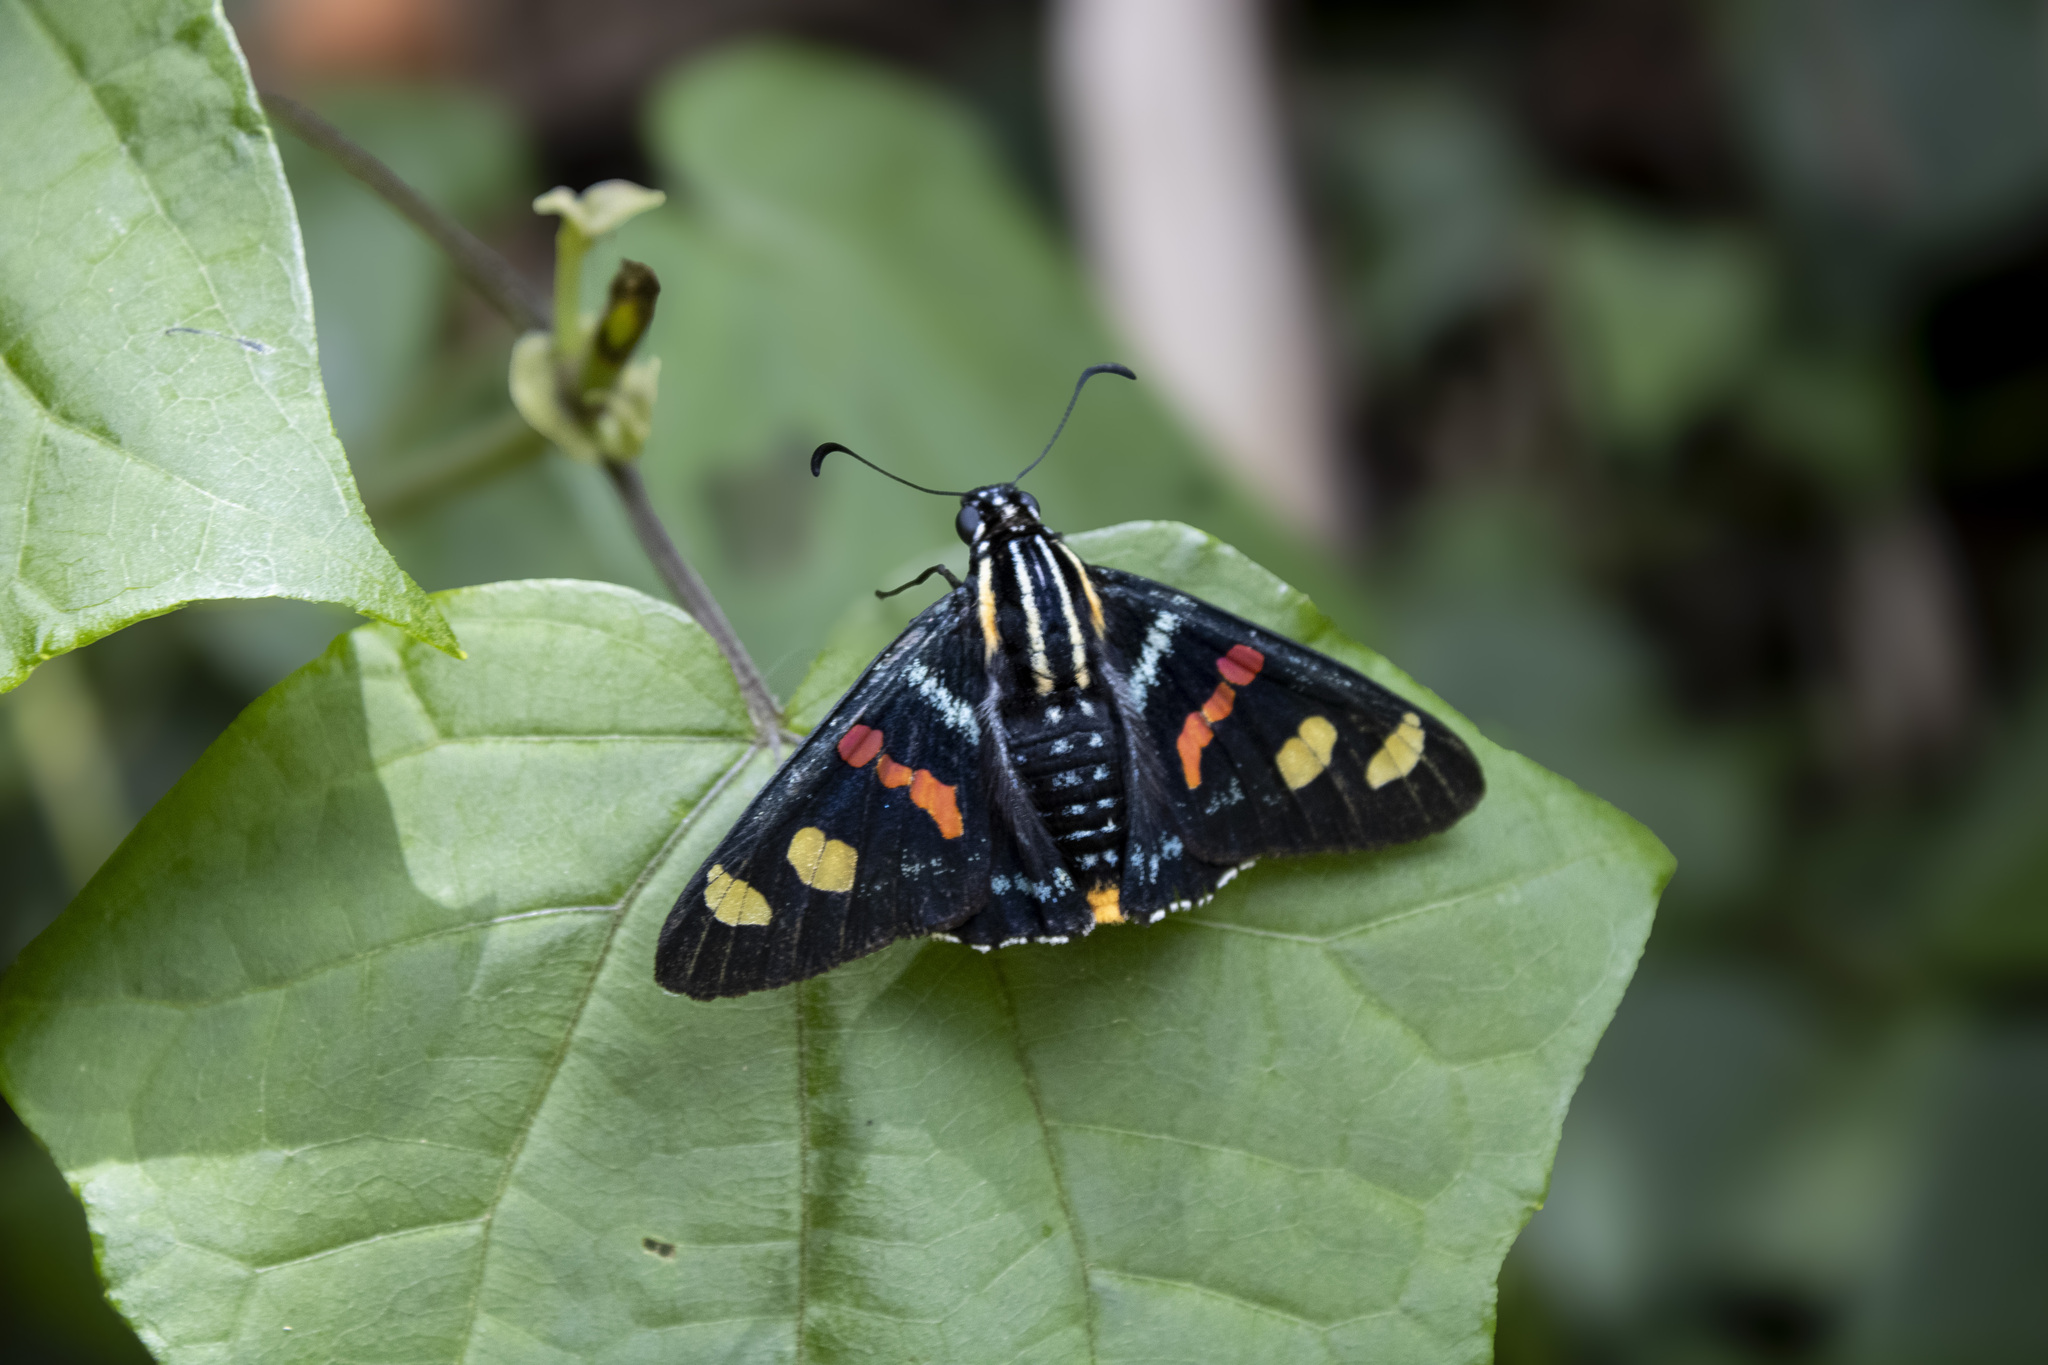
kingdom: Animalia
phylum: Arthropoda
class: Insecta
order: Lepidoptera
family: Hesperiidae
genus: Mimoniades
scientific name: Mimoniades versicolor
